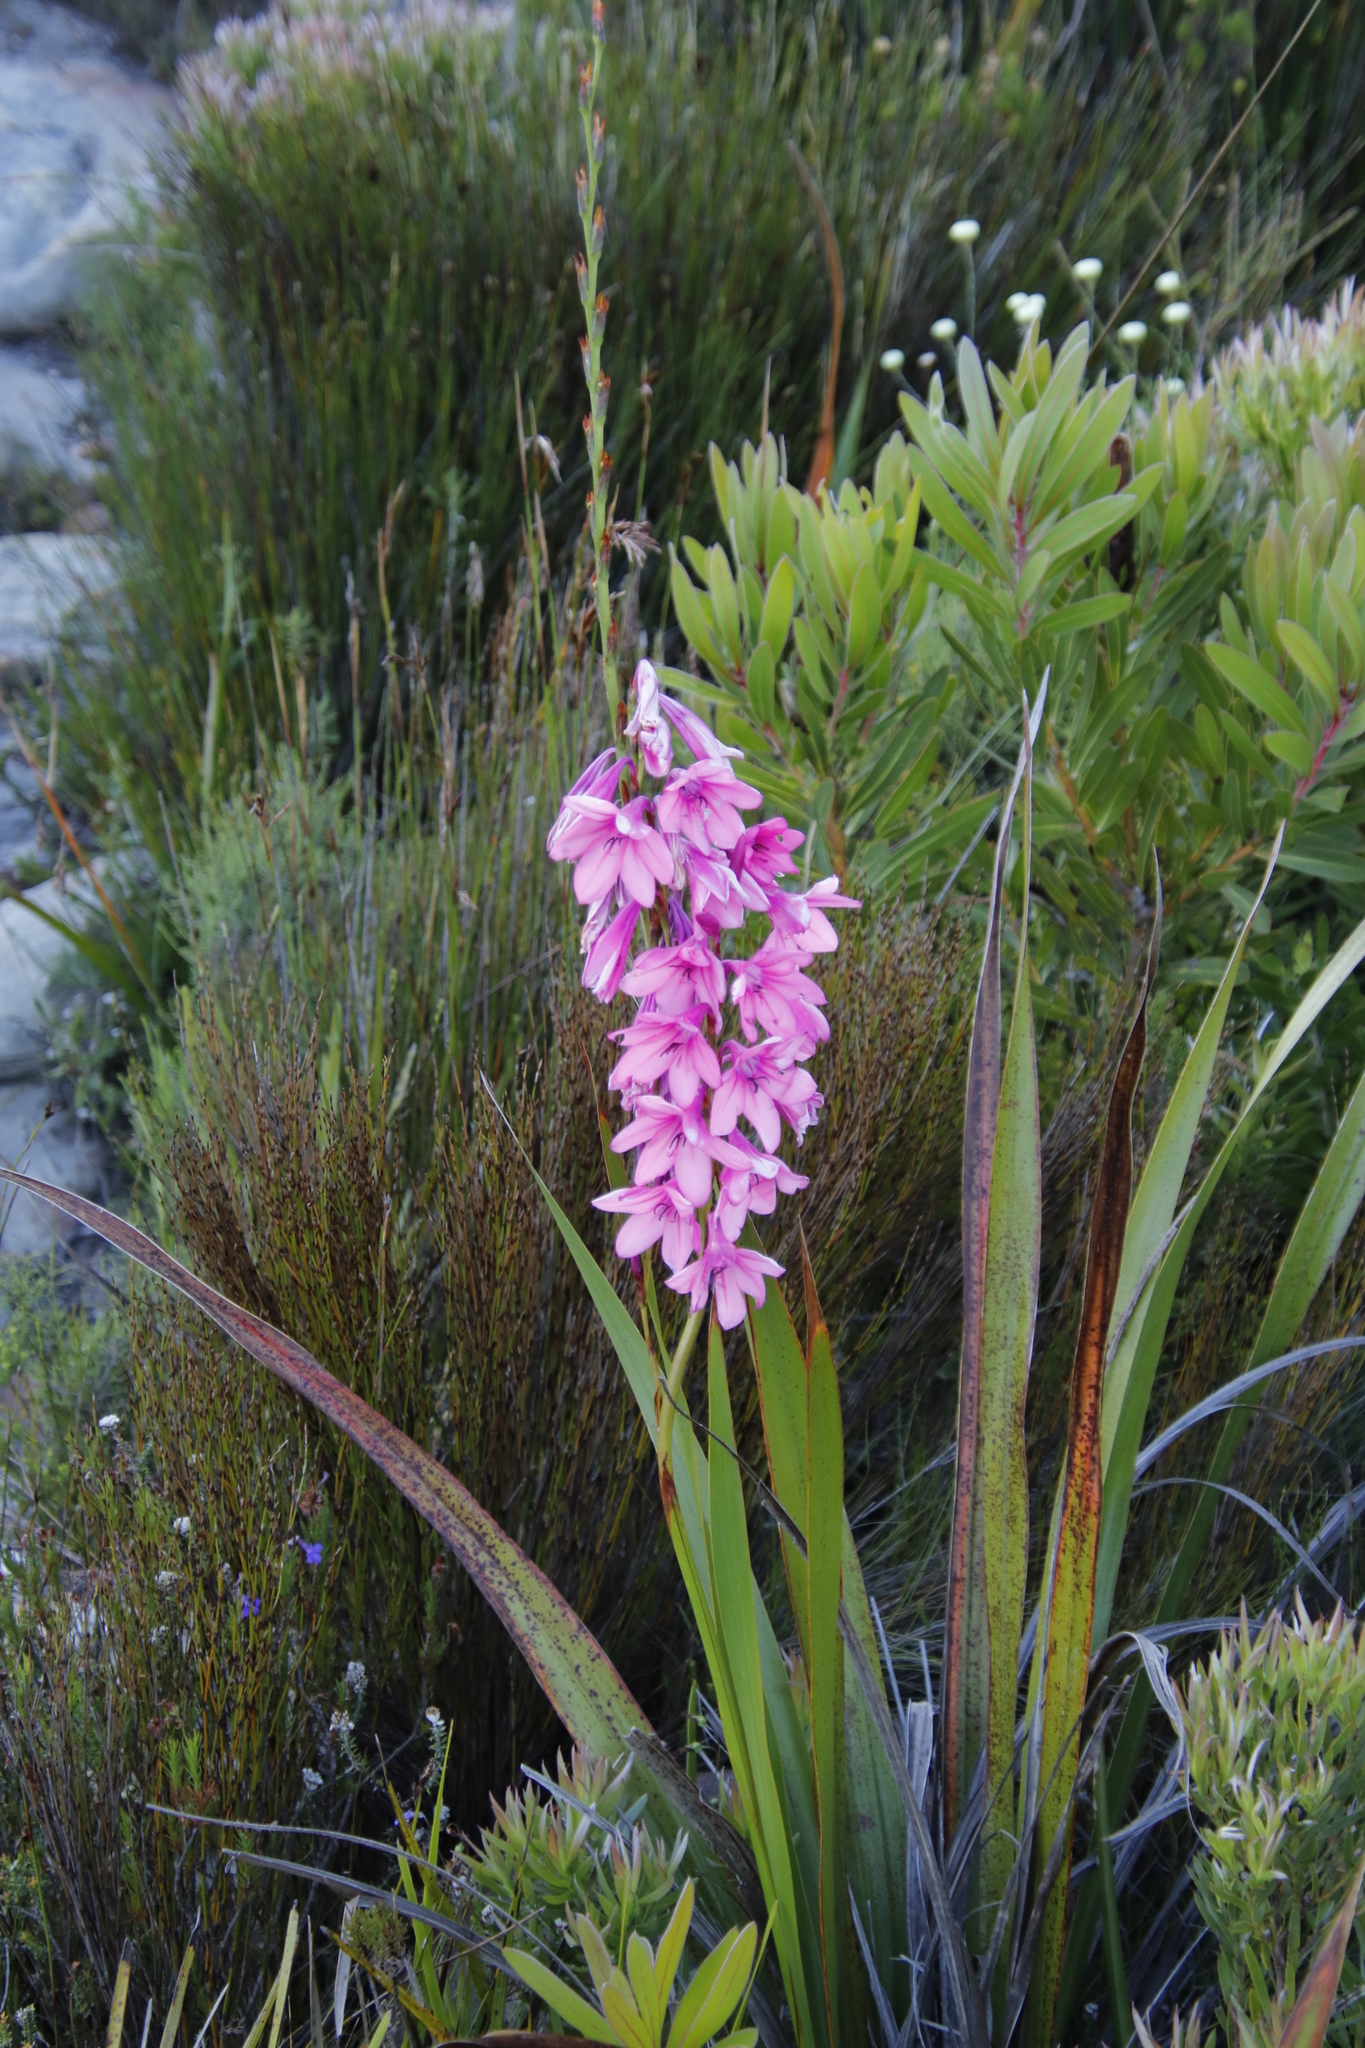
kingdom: Plantae
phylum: Tracheophyta
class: Liliopsida
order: Asparagales
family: Iridaceae
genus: Watsonia
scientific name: Watsonia borbonica
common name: Bugle-lily
